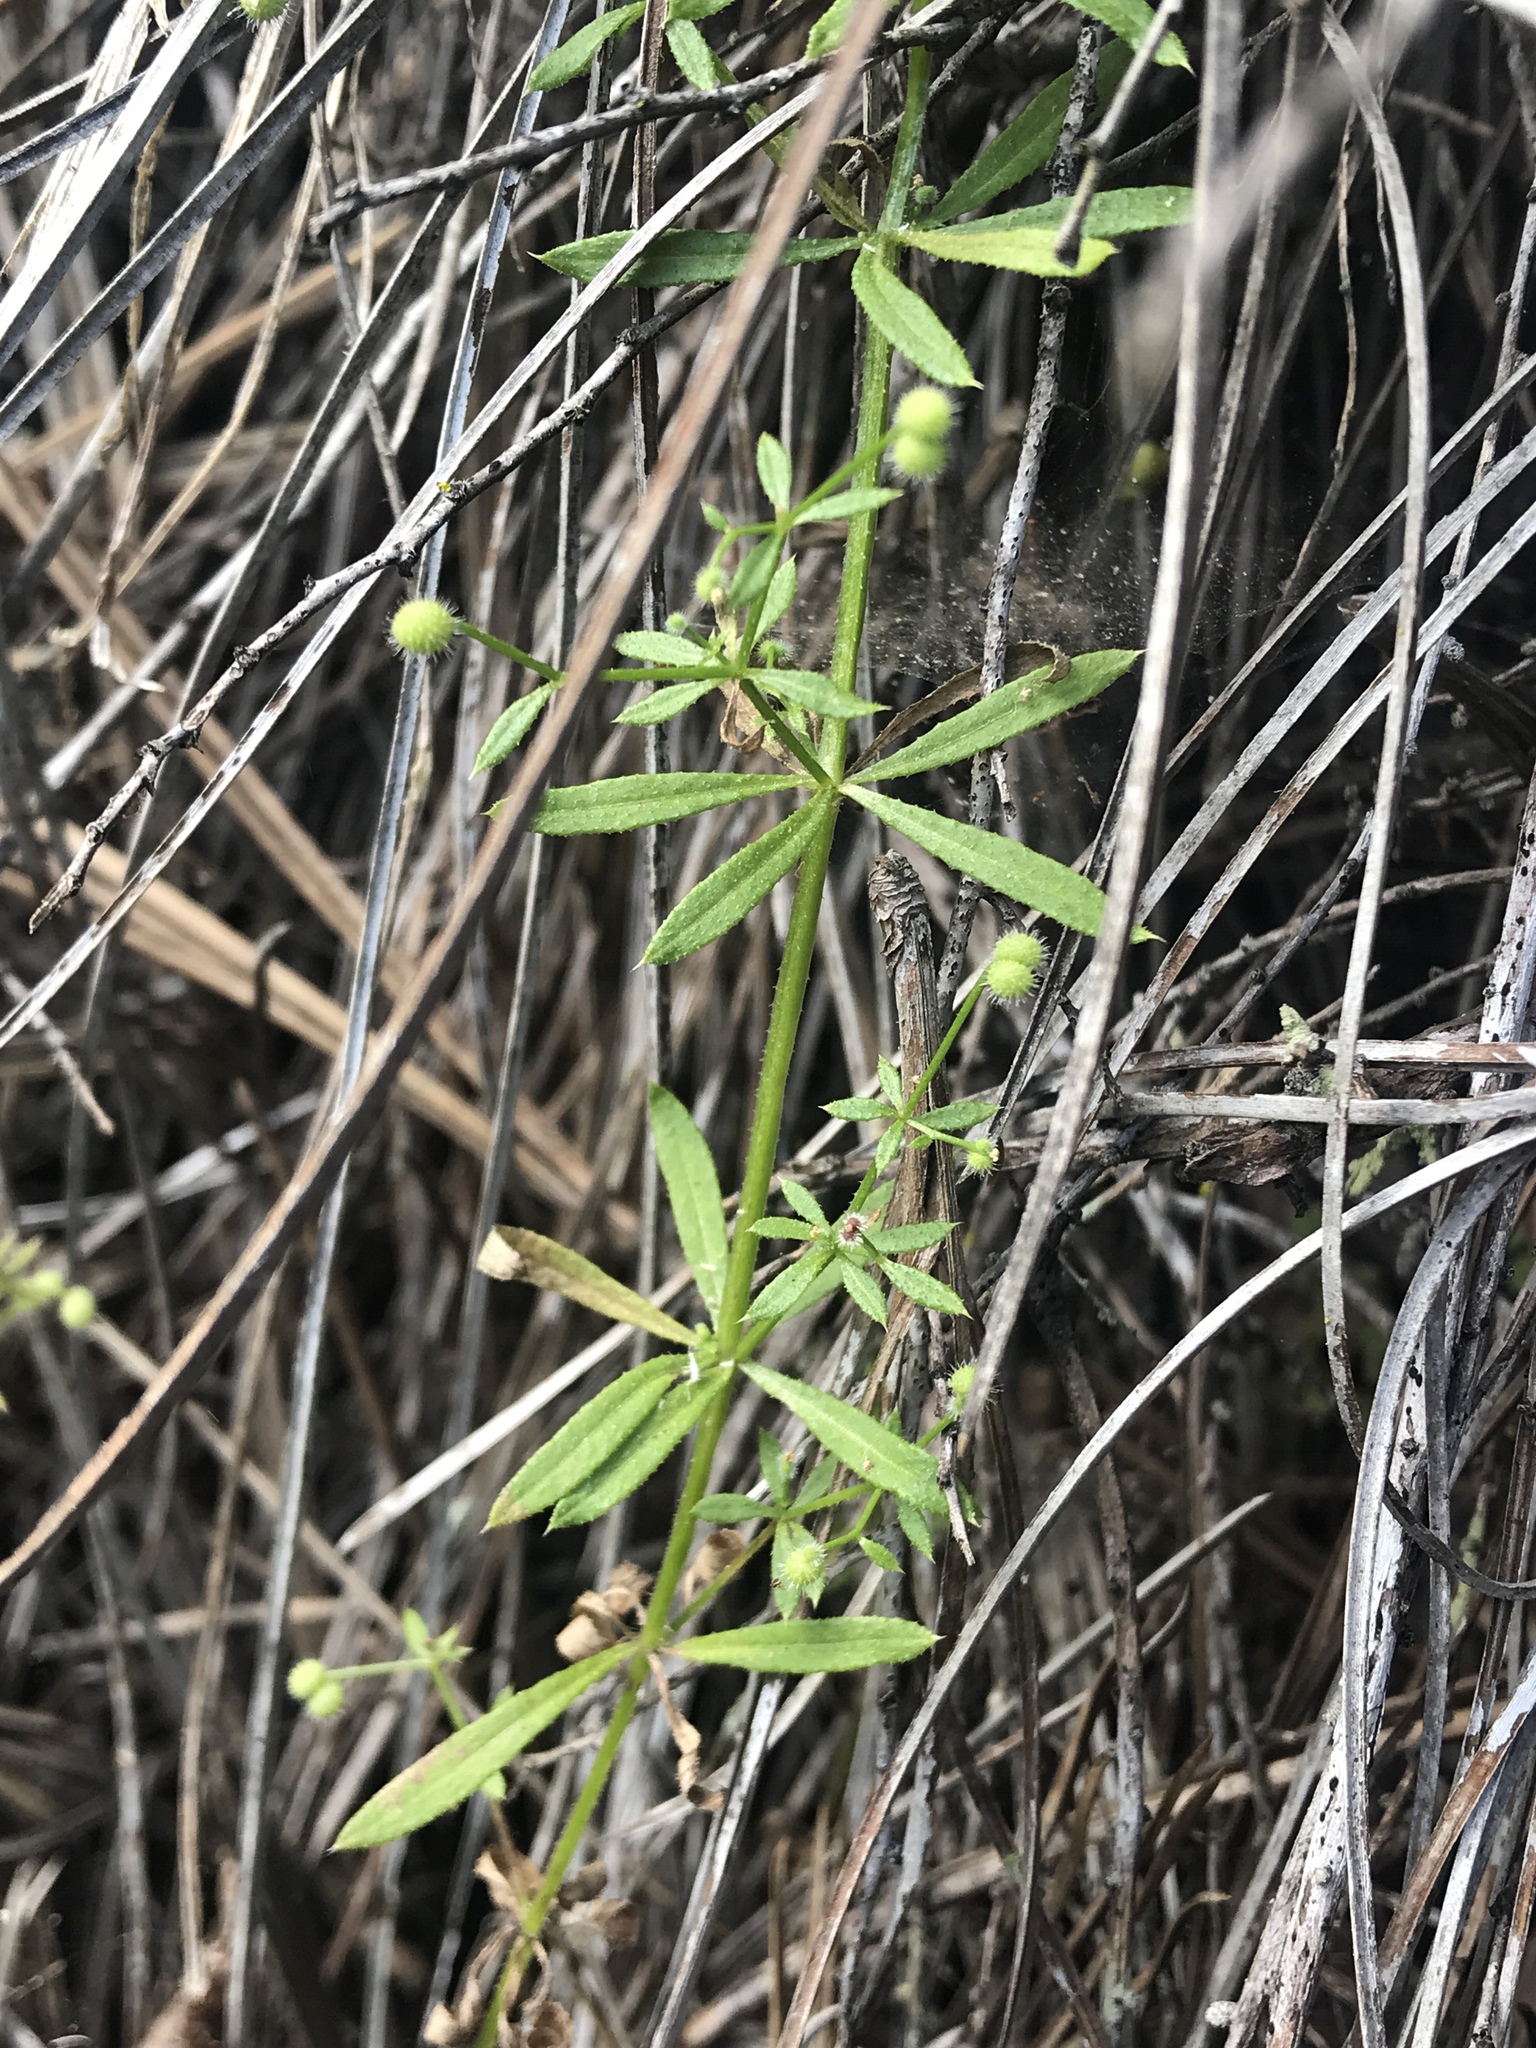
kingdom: Plantae
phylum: Tracheophyta
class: Magnoliopsida
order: Gentianales
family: Rubiaceae
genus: Galium
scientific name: Galium aparine
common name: Cleavers
